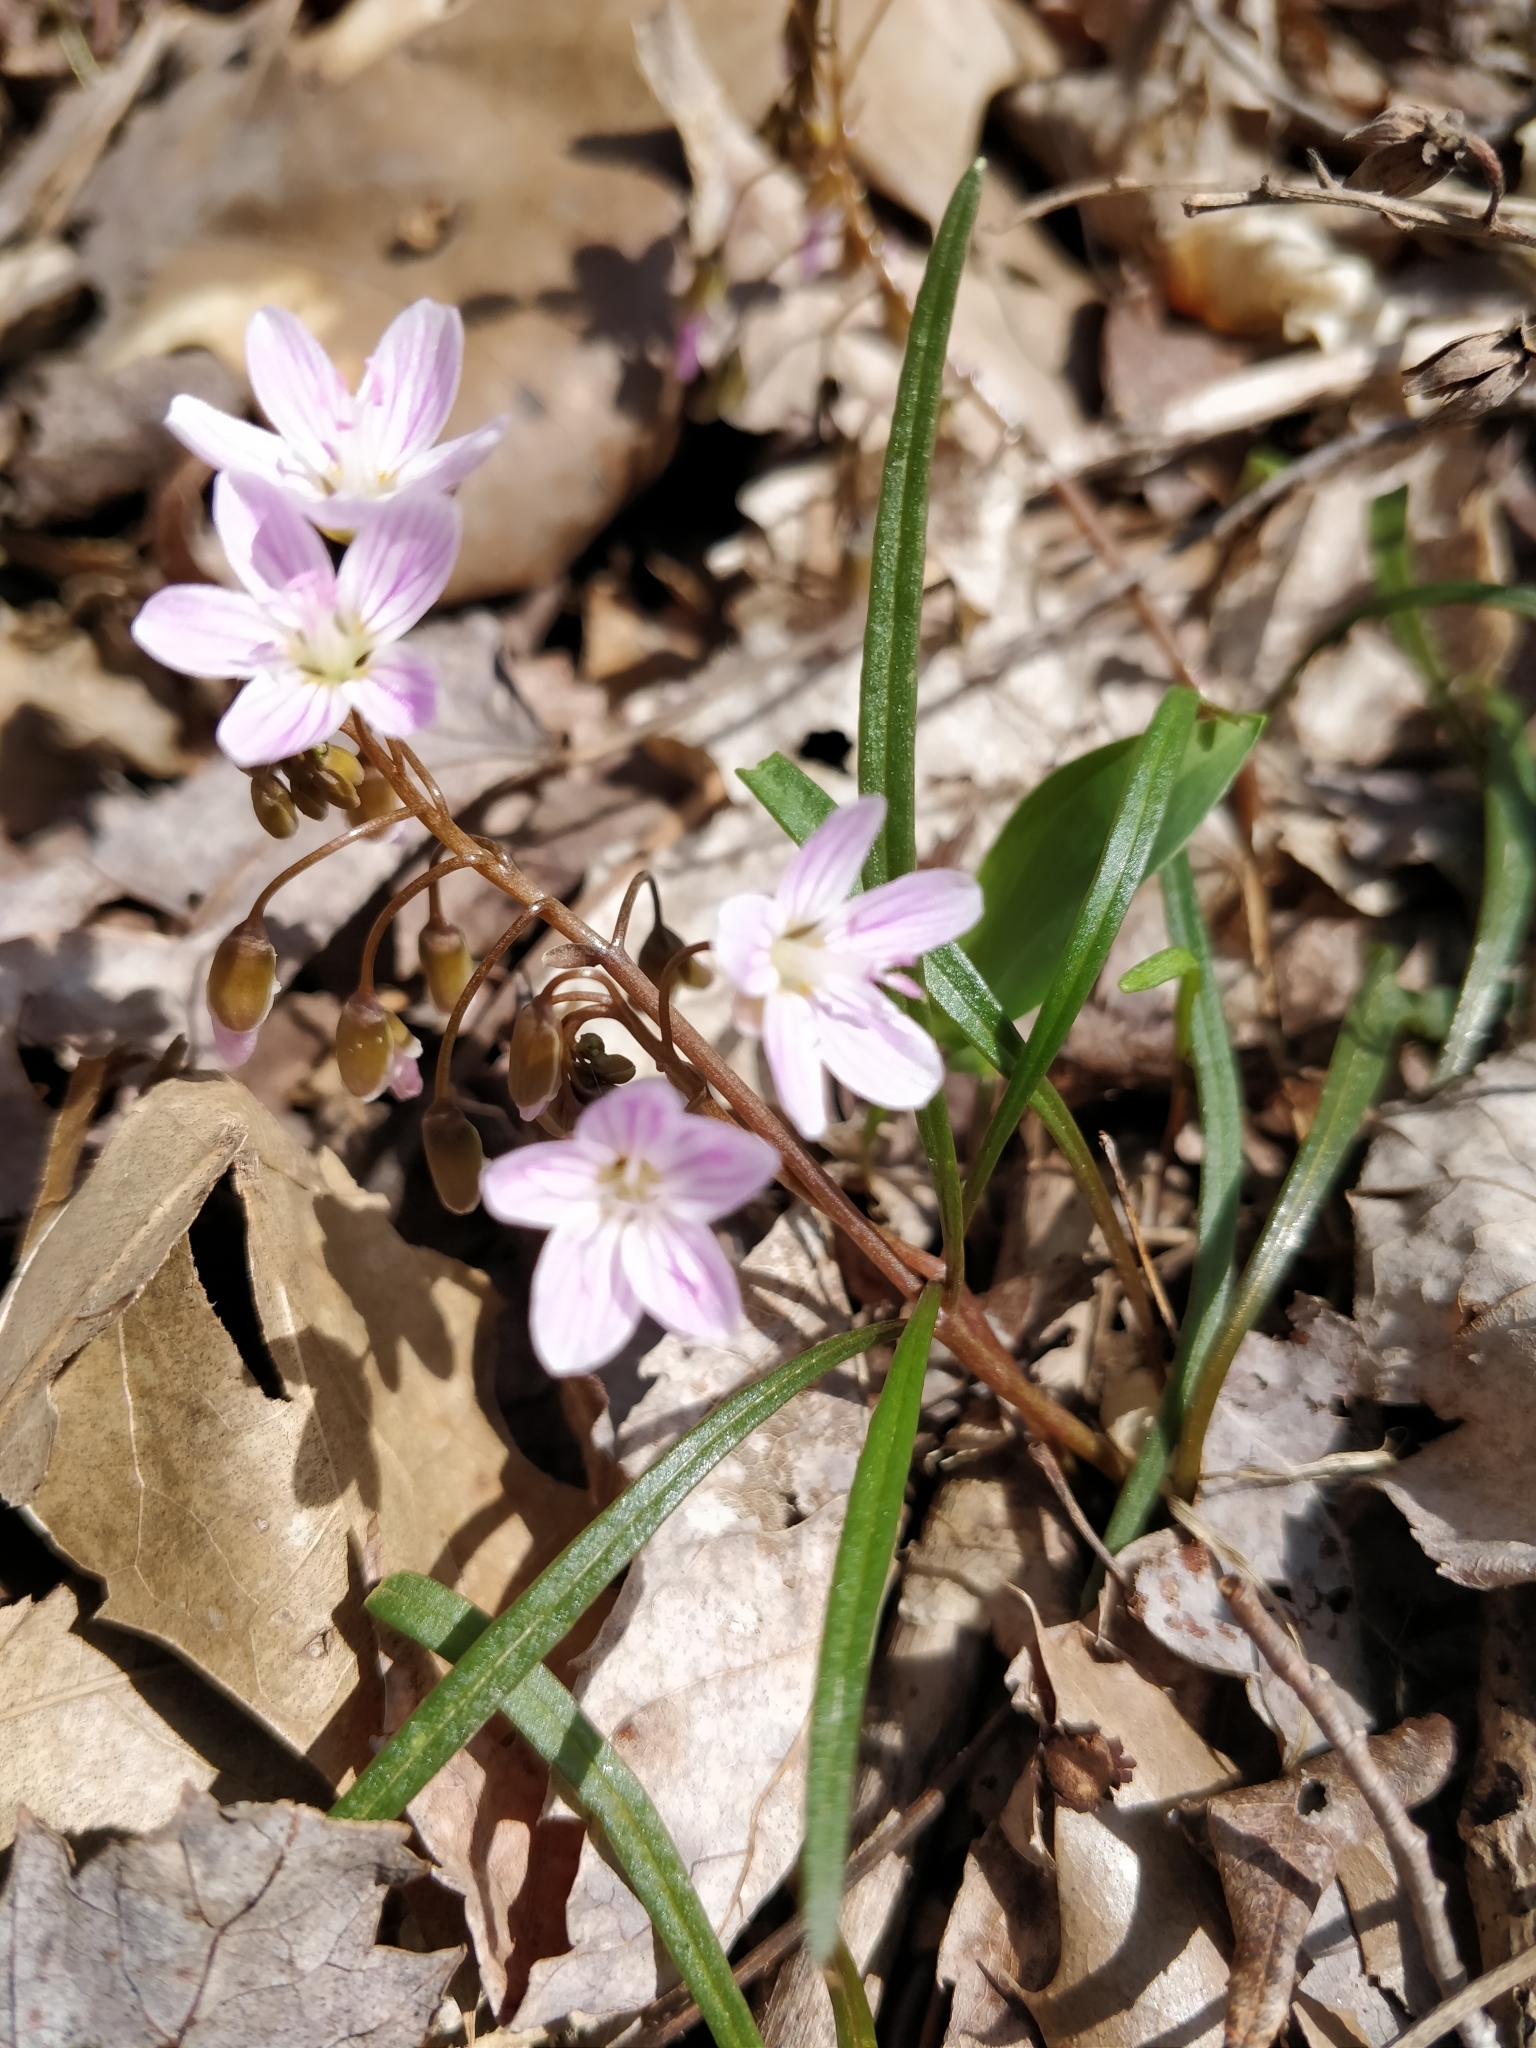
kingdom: Plantae
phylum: Tracheophyta
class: Magnoliopsida
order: Caryophyllales
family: Montiaceae
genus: Claytonia
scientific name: Claytonia virginica
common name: Virginia springbeauty
